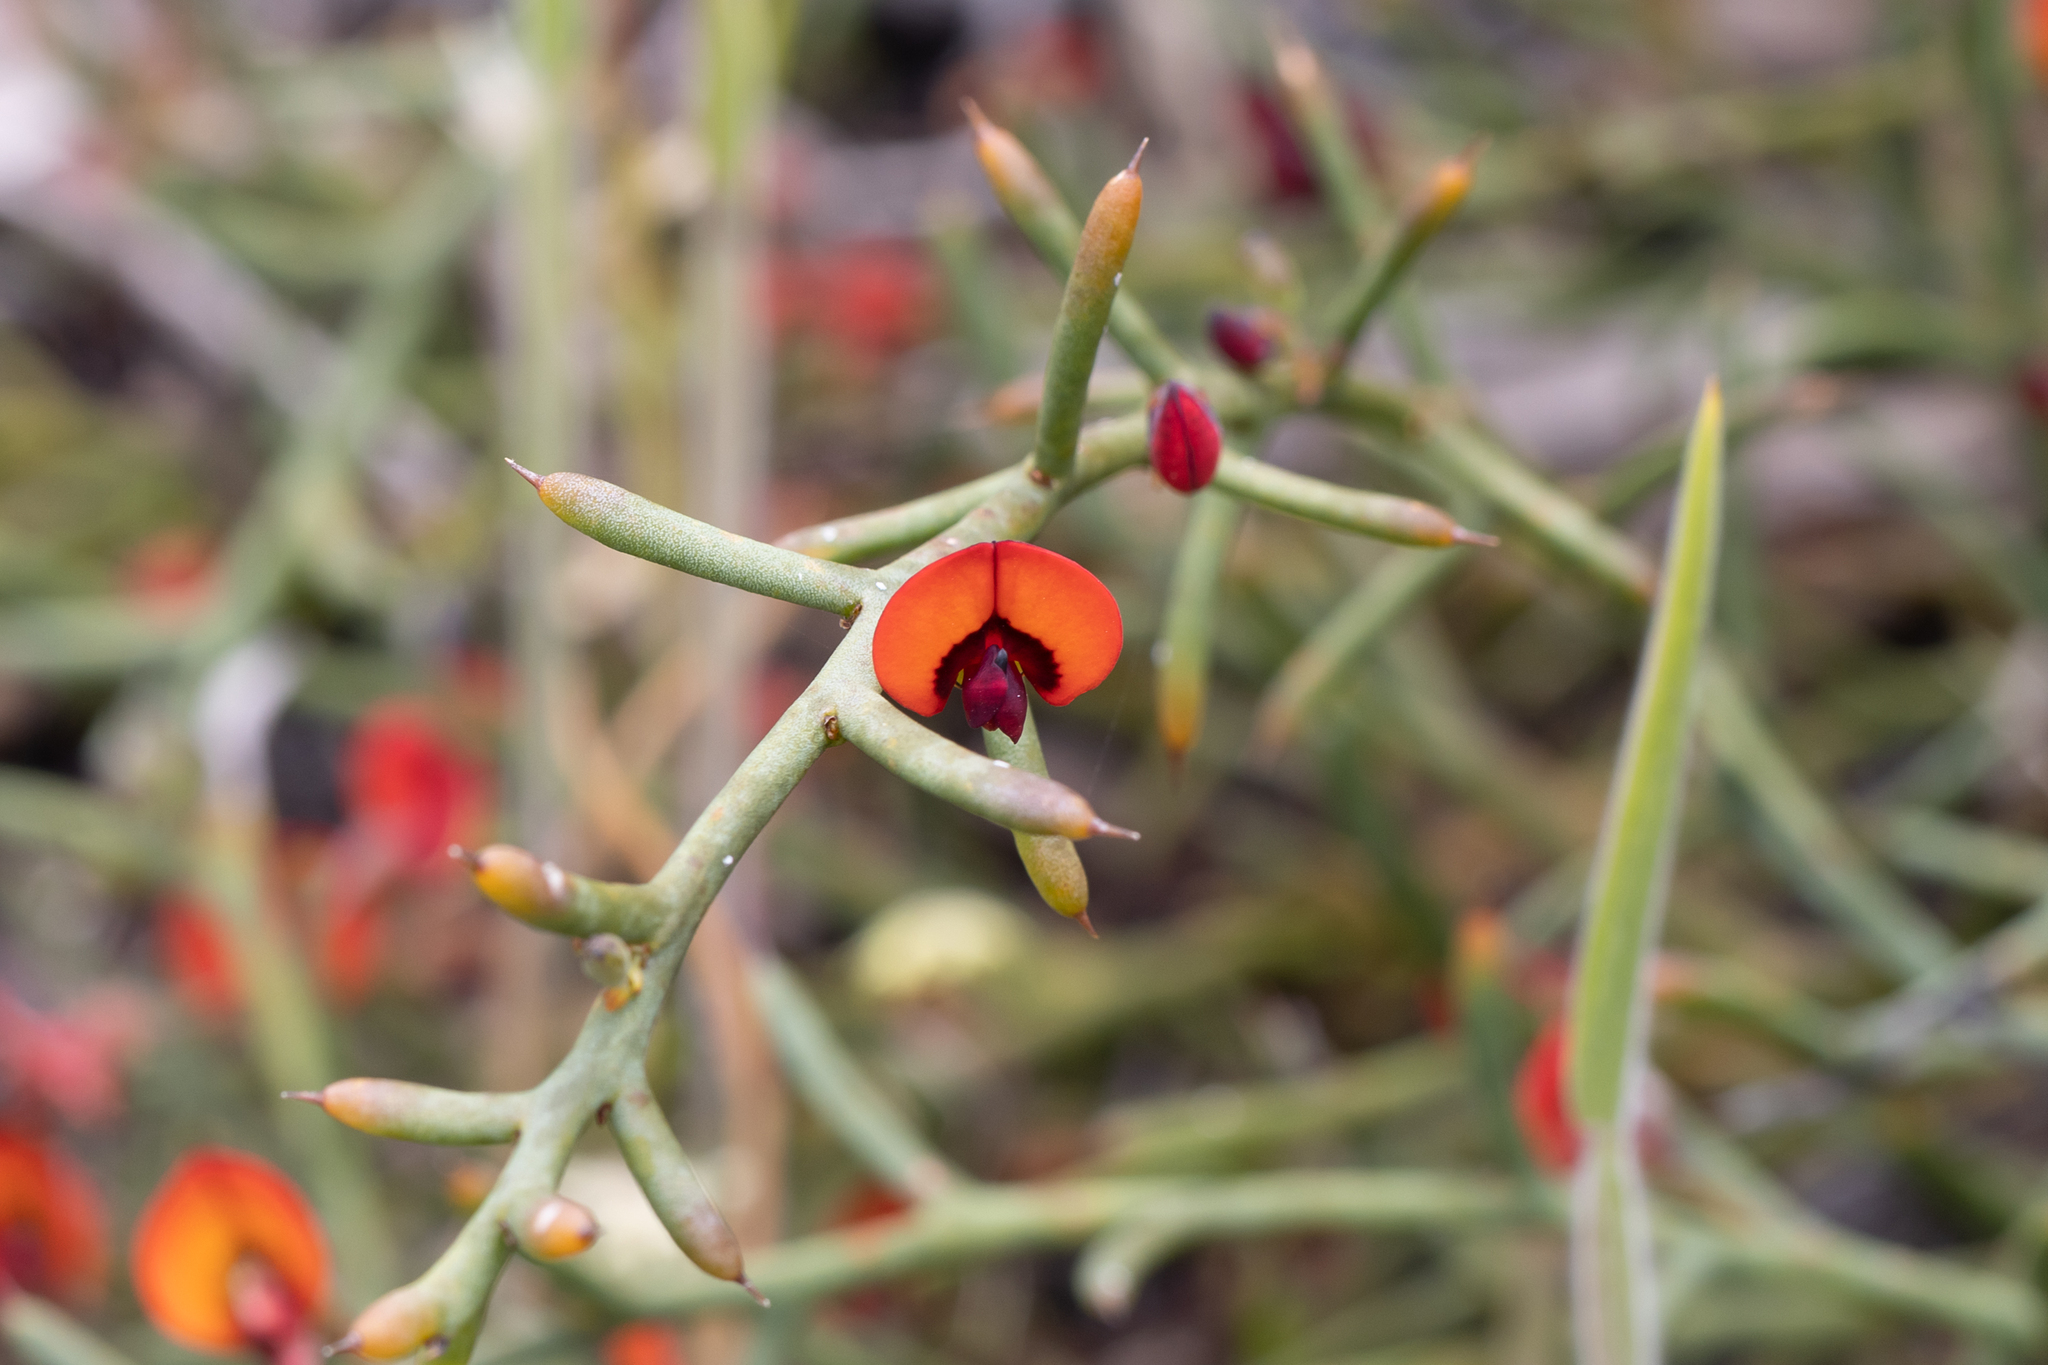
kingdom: Plantae
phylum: Tracheophyta
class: Magnoliopsida
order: Fabales
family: Fabaceae
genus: Daviesia
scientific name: Daviesia incrassata
